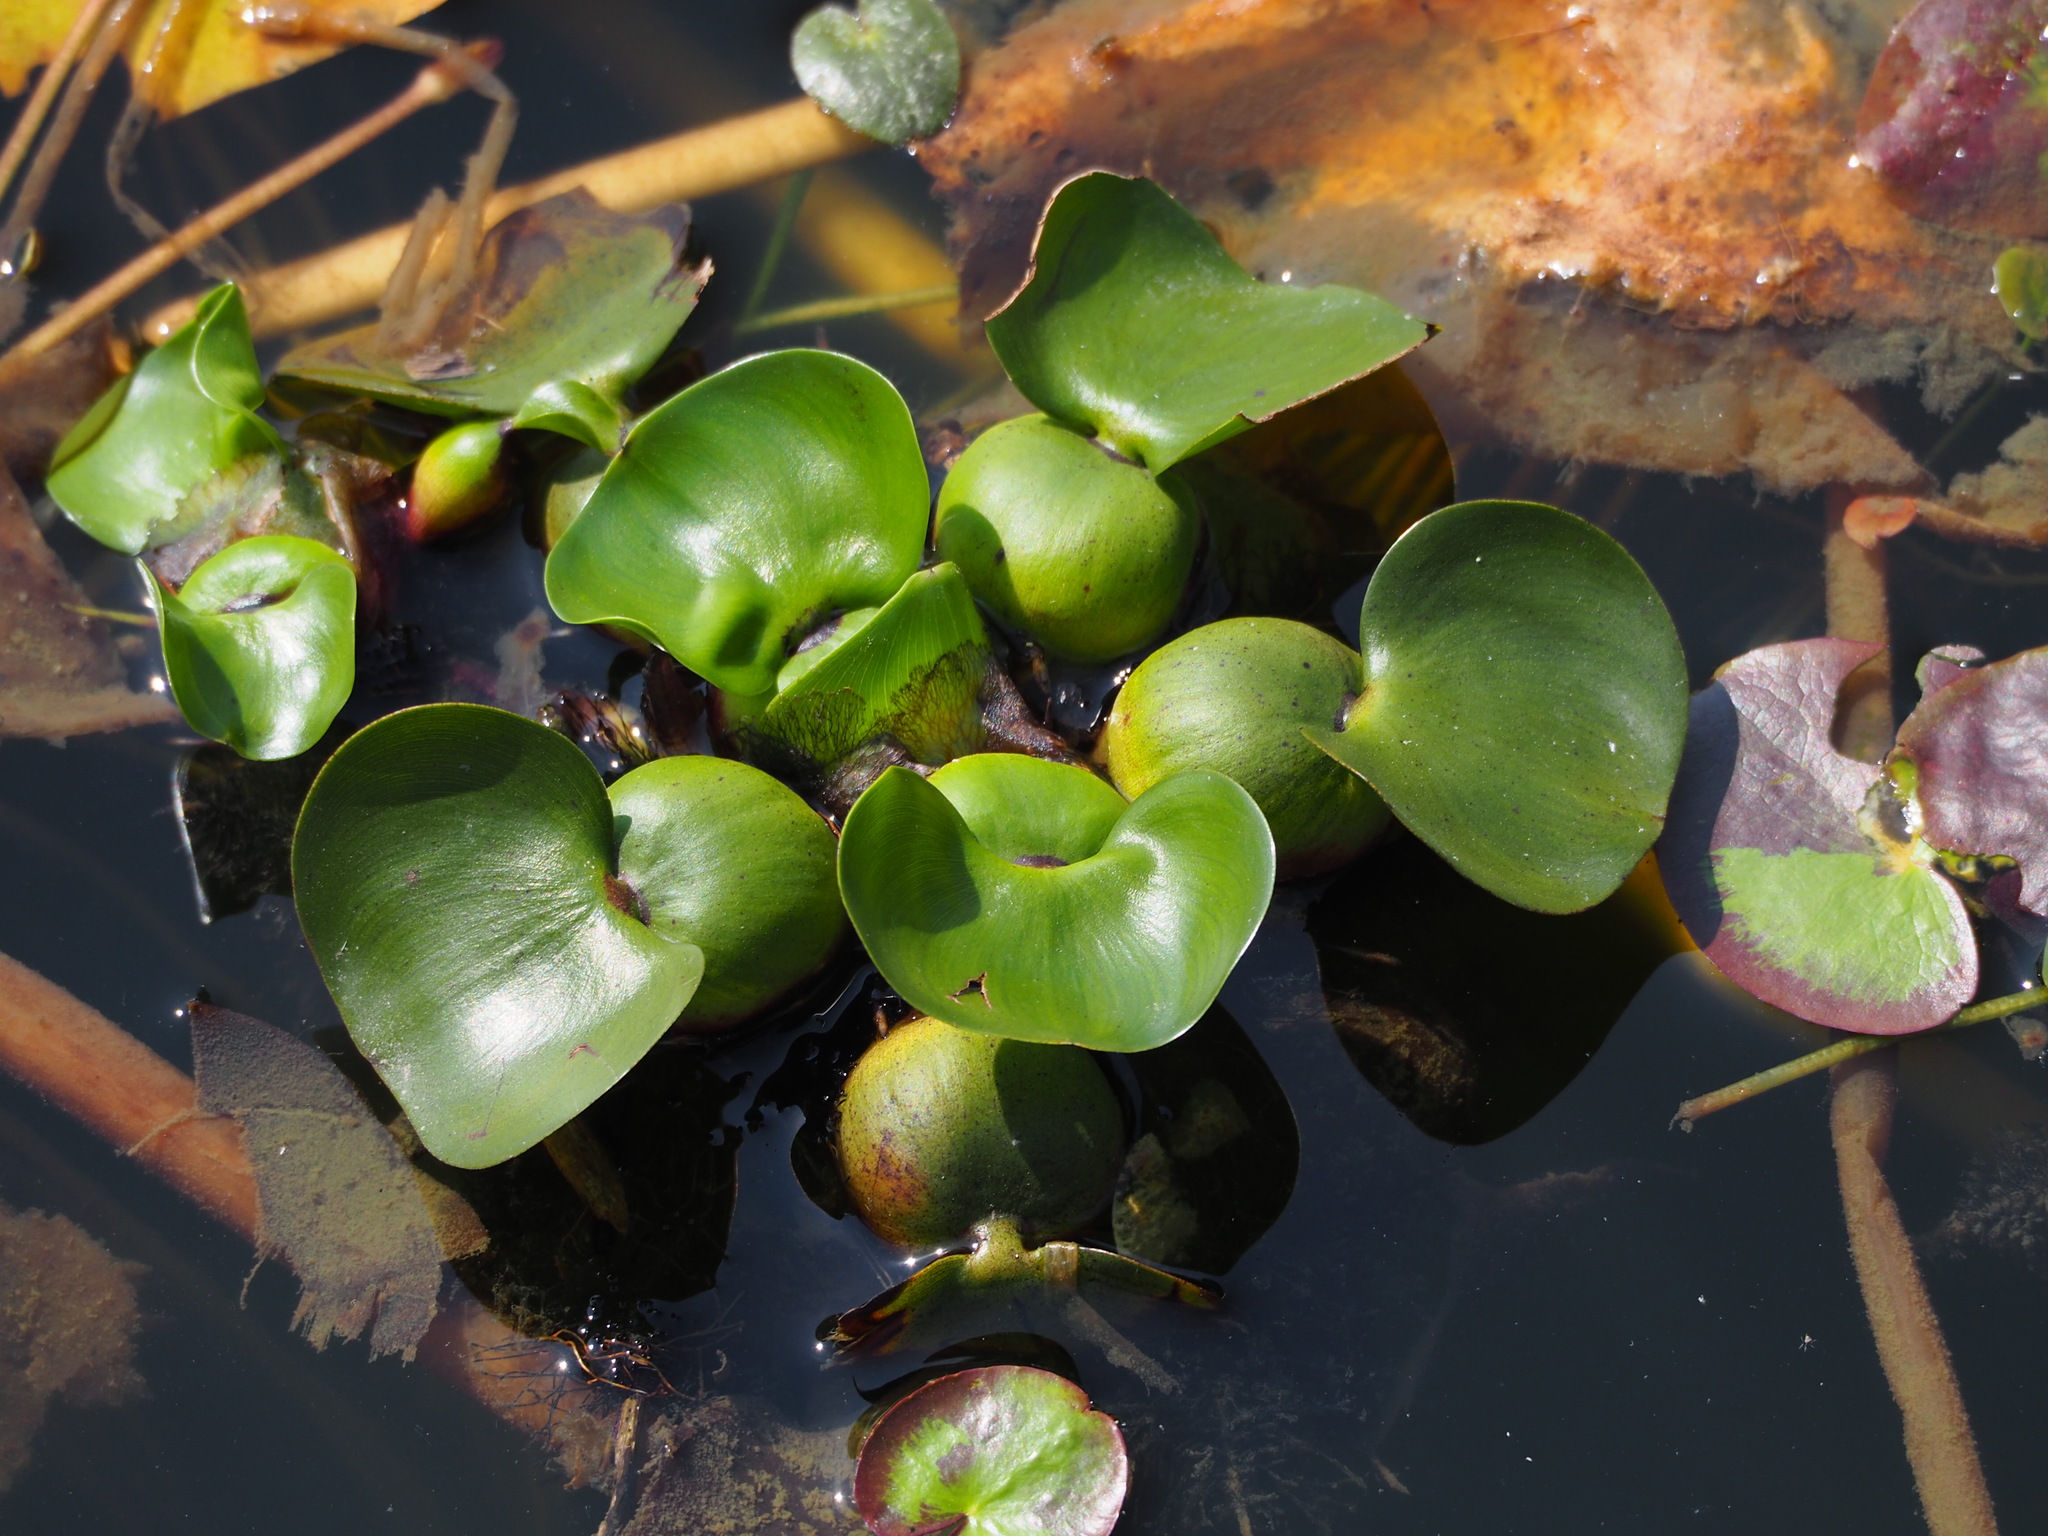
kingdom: Plantae
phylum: Tracheophyta
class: Liliopsida
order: Commelinales
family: Pontederiaceae
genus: Pontederia
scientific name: Pontederia crassipes
